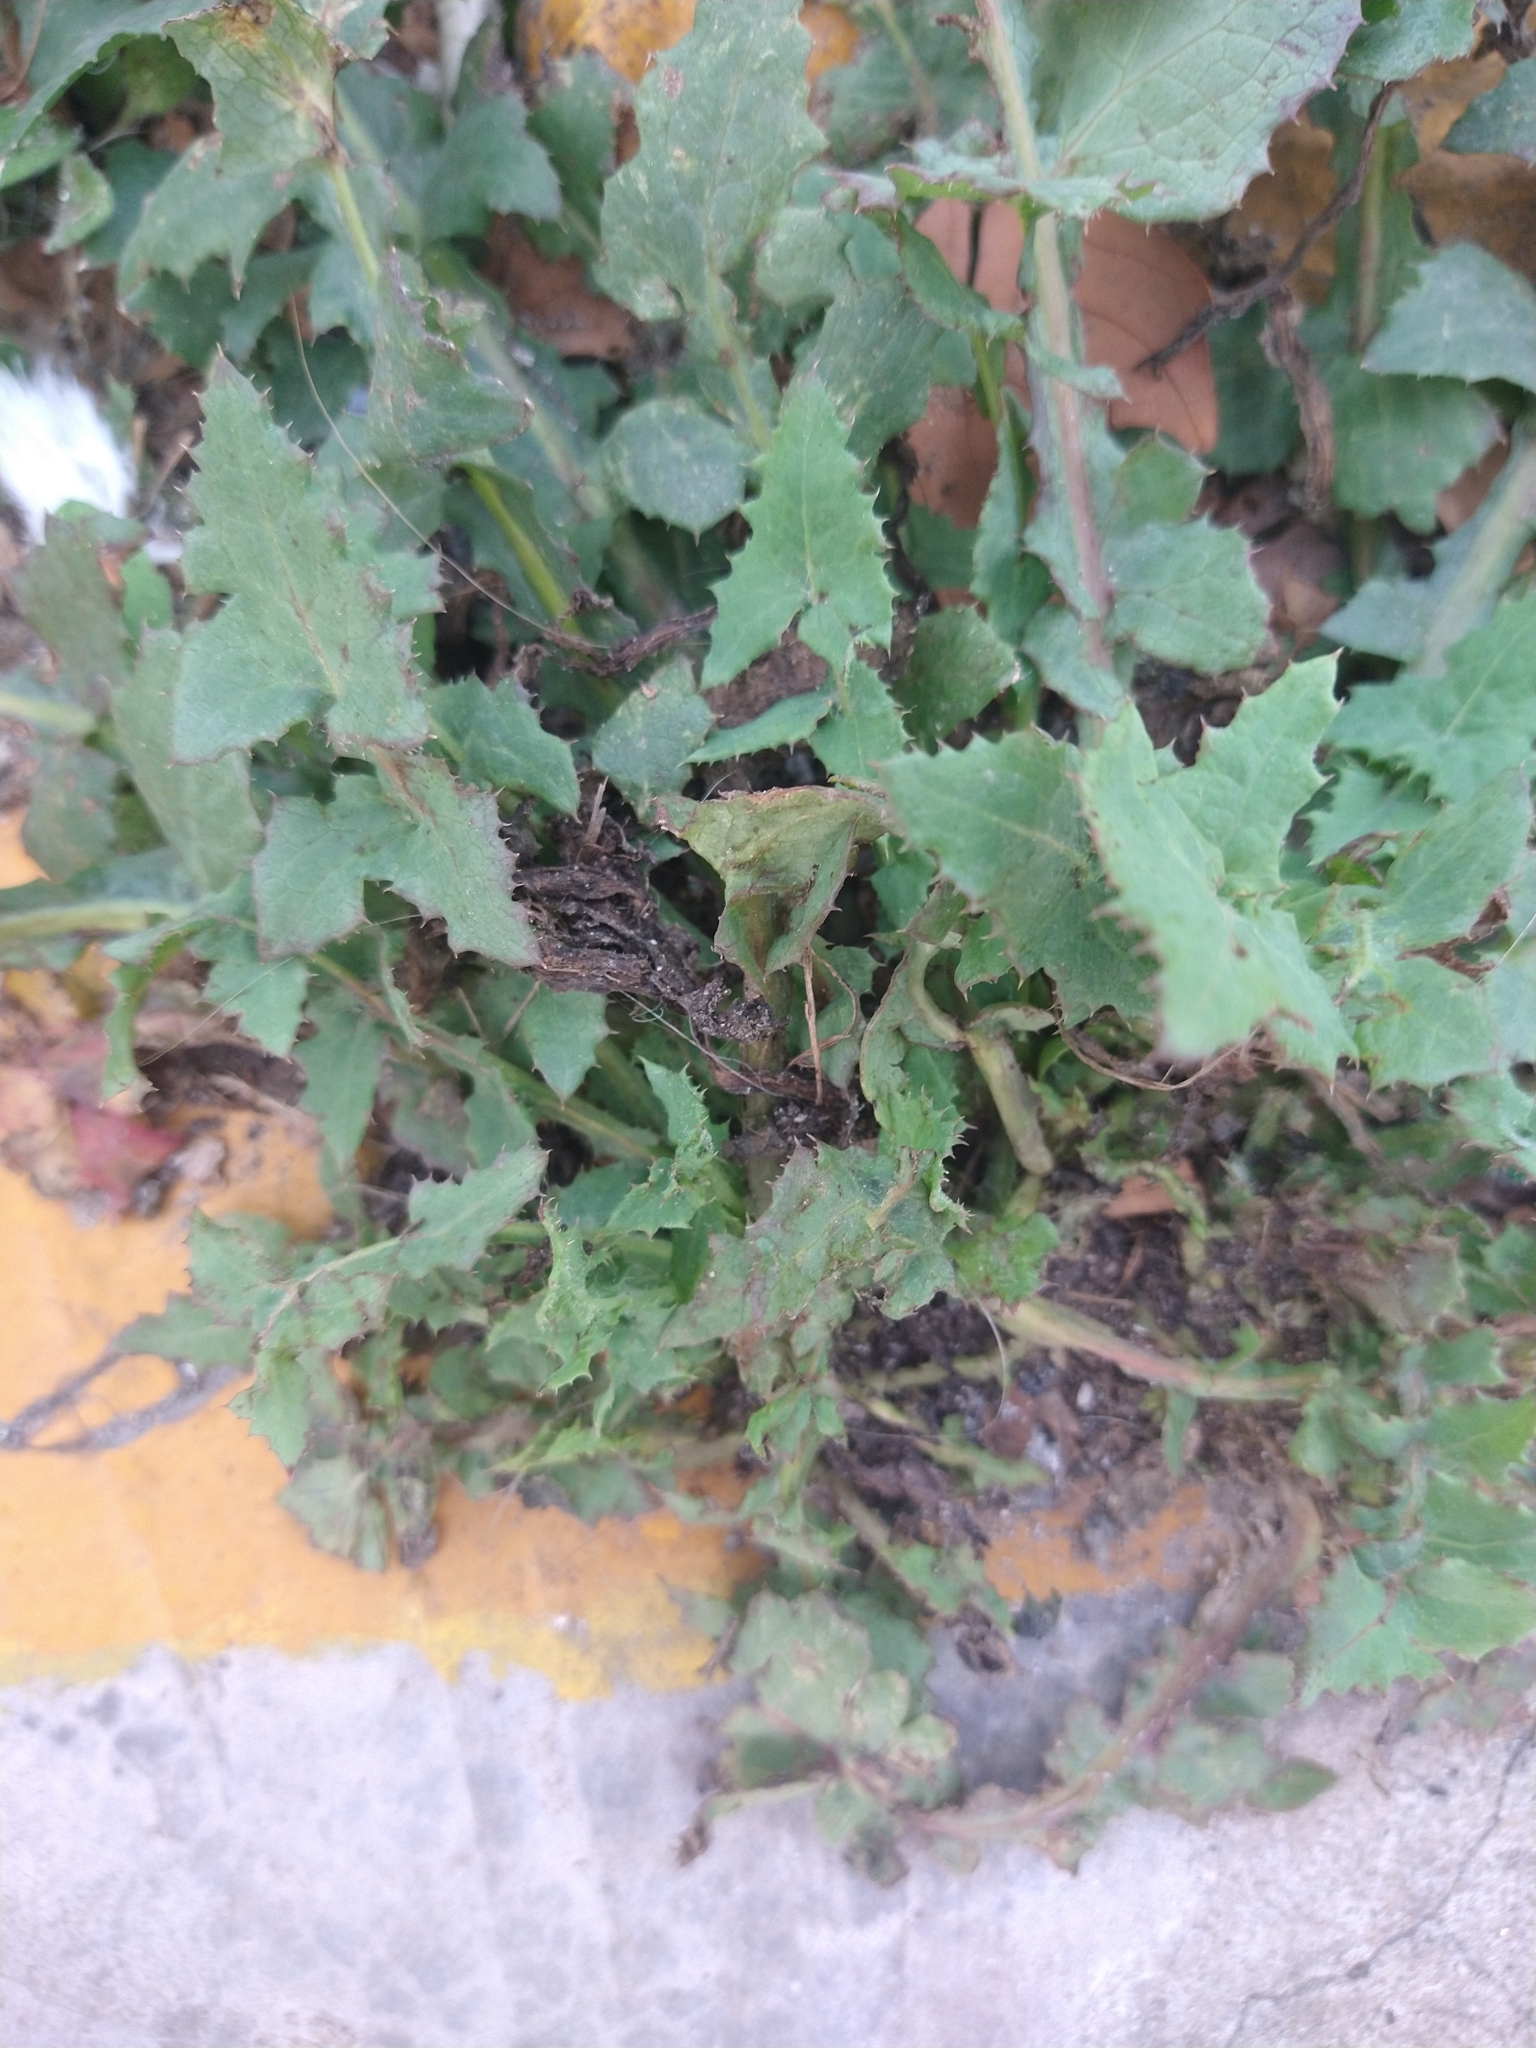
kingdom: Plantae
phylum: Tracheophyta
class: Magnoliopsida
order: Asterales
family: Asteraceae
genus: Sonchus
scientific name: Sonchus oleraceus
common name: Common sowthistle
